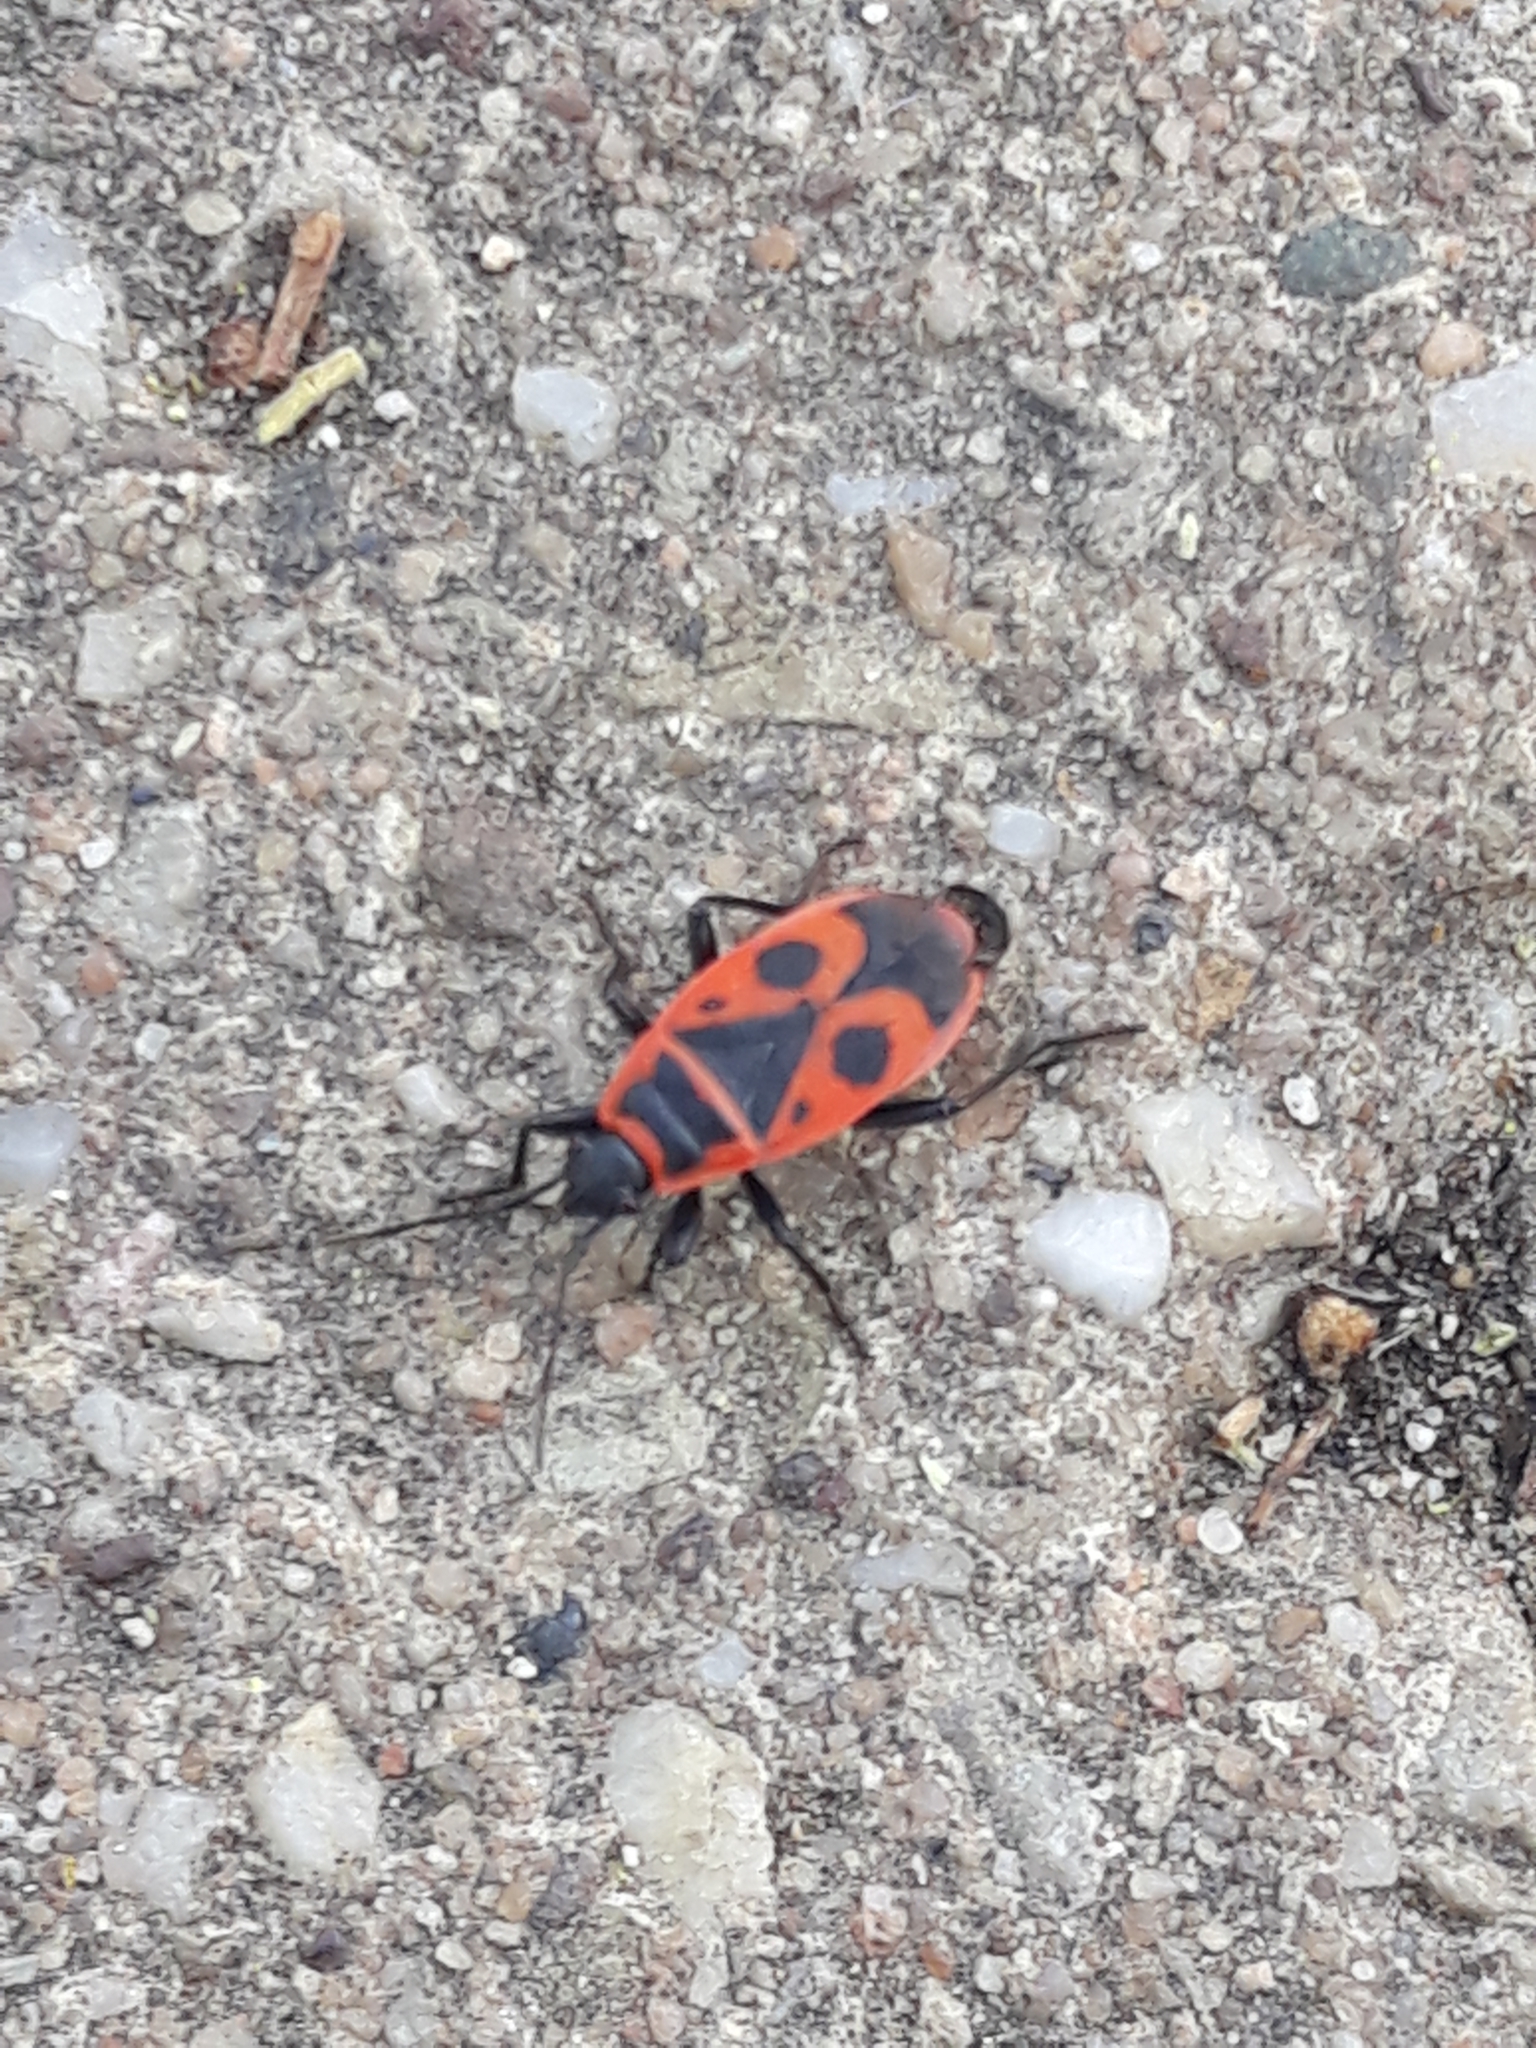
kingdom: Animalia
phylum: Arthropoda
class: Insecta
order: Hemiptera
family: Pyrrhocoridae
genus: Pyrrhocoris
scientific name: Pyrrhocoris apterus
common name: Firebug
